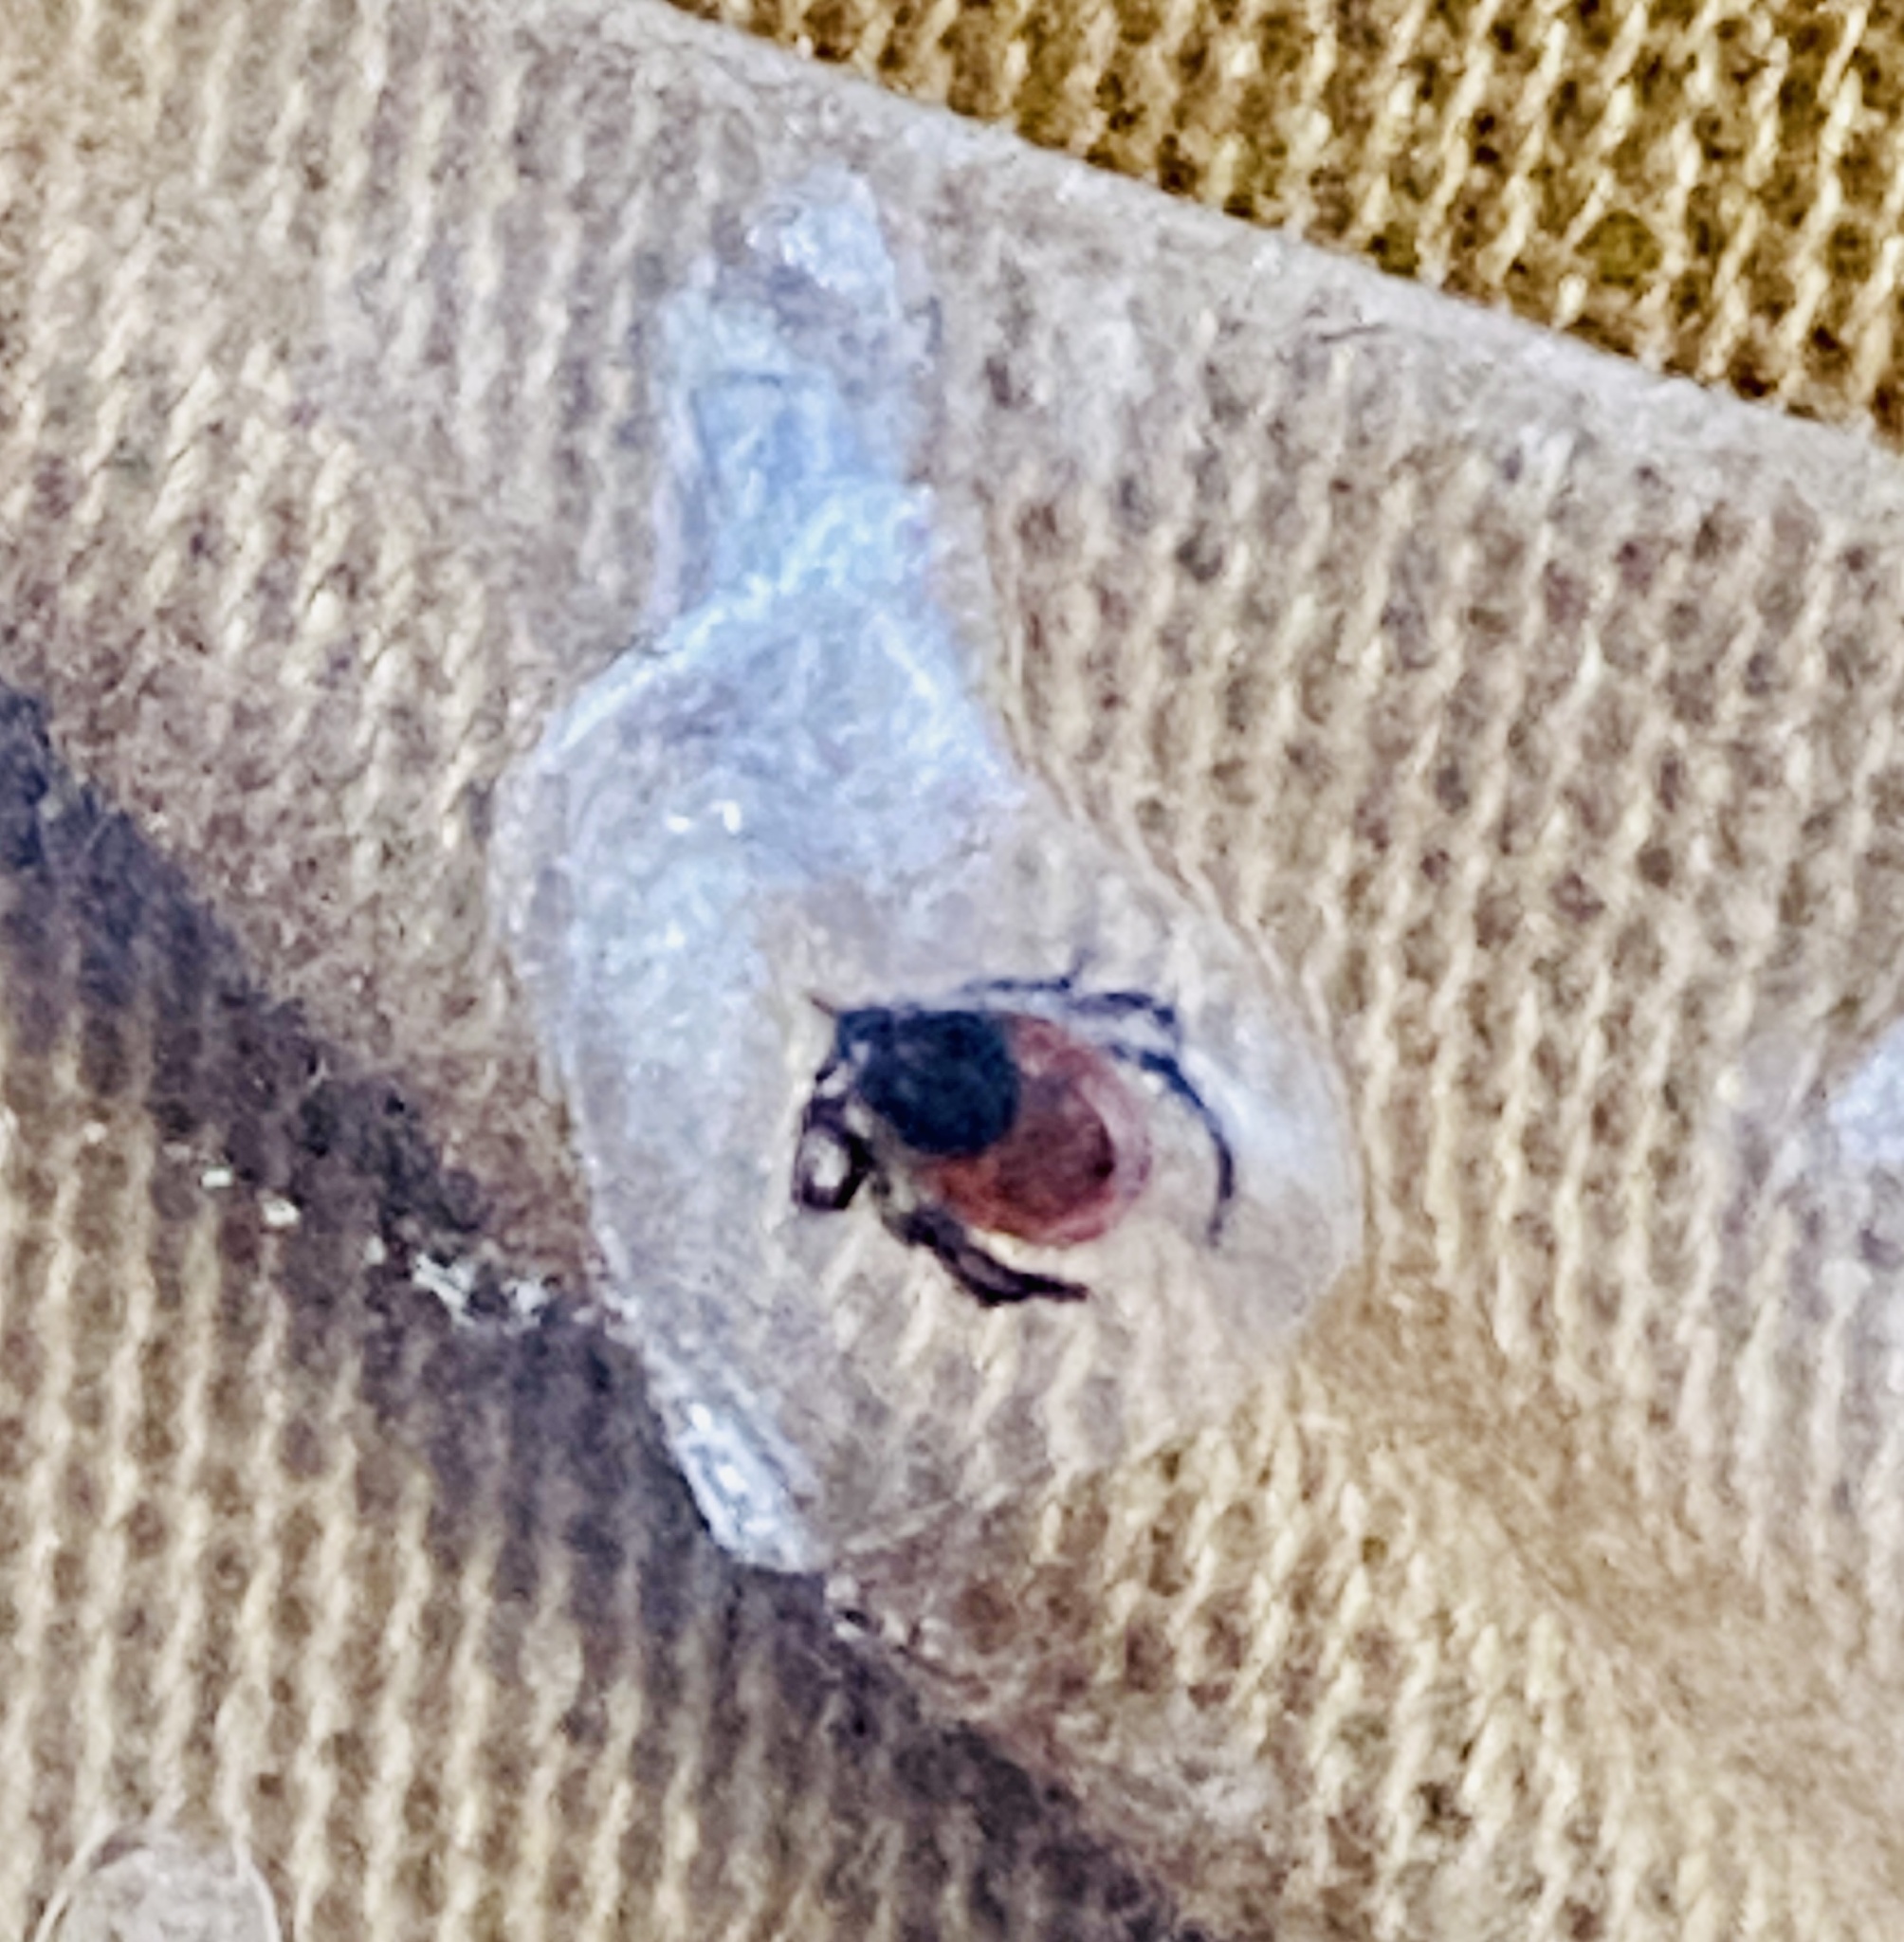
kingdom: Animalia
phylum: Arthropoda
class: Arachnida
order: Ixodida
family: Ixodidae
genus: Ixodes
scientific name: Ixodes scapularis
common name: Black legged tick
